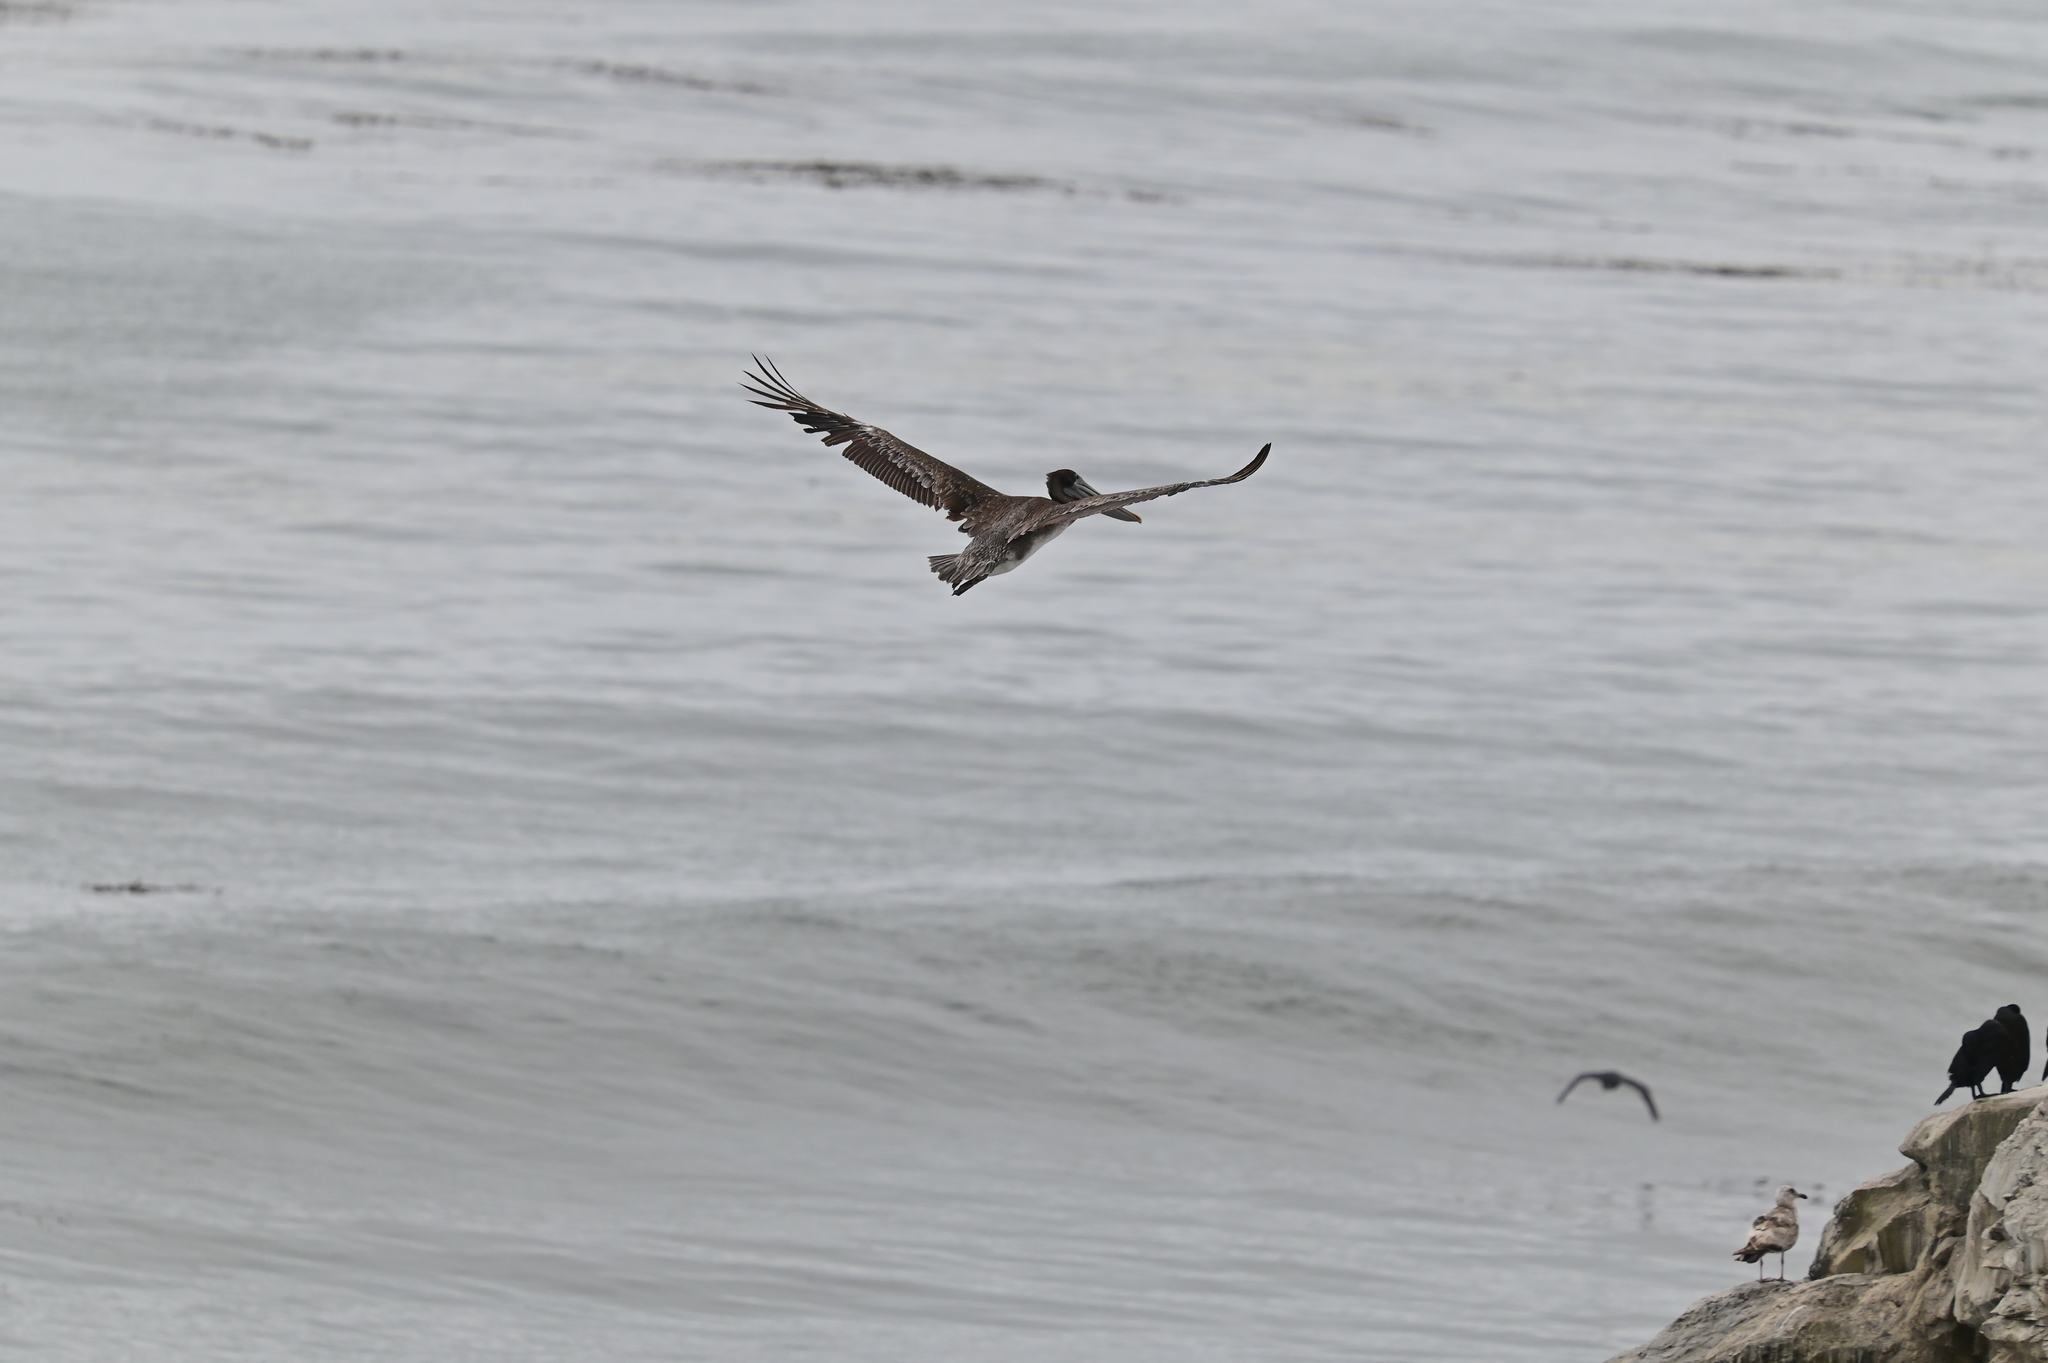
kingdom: Animalia
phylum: Chordata
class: Aves
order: Pelecaniformes
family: Pelecanidae
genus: Pelecanus
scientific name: Pelecanus occidentalis
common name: Brown pelican
